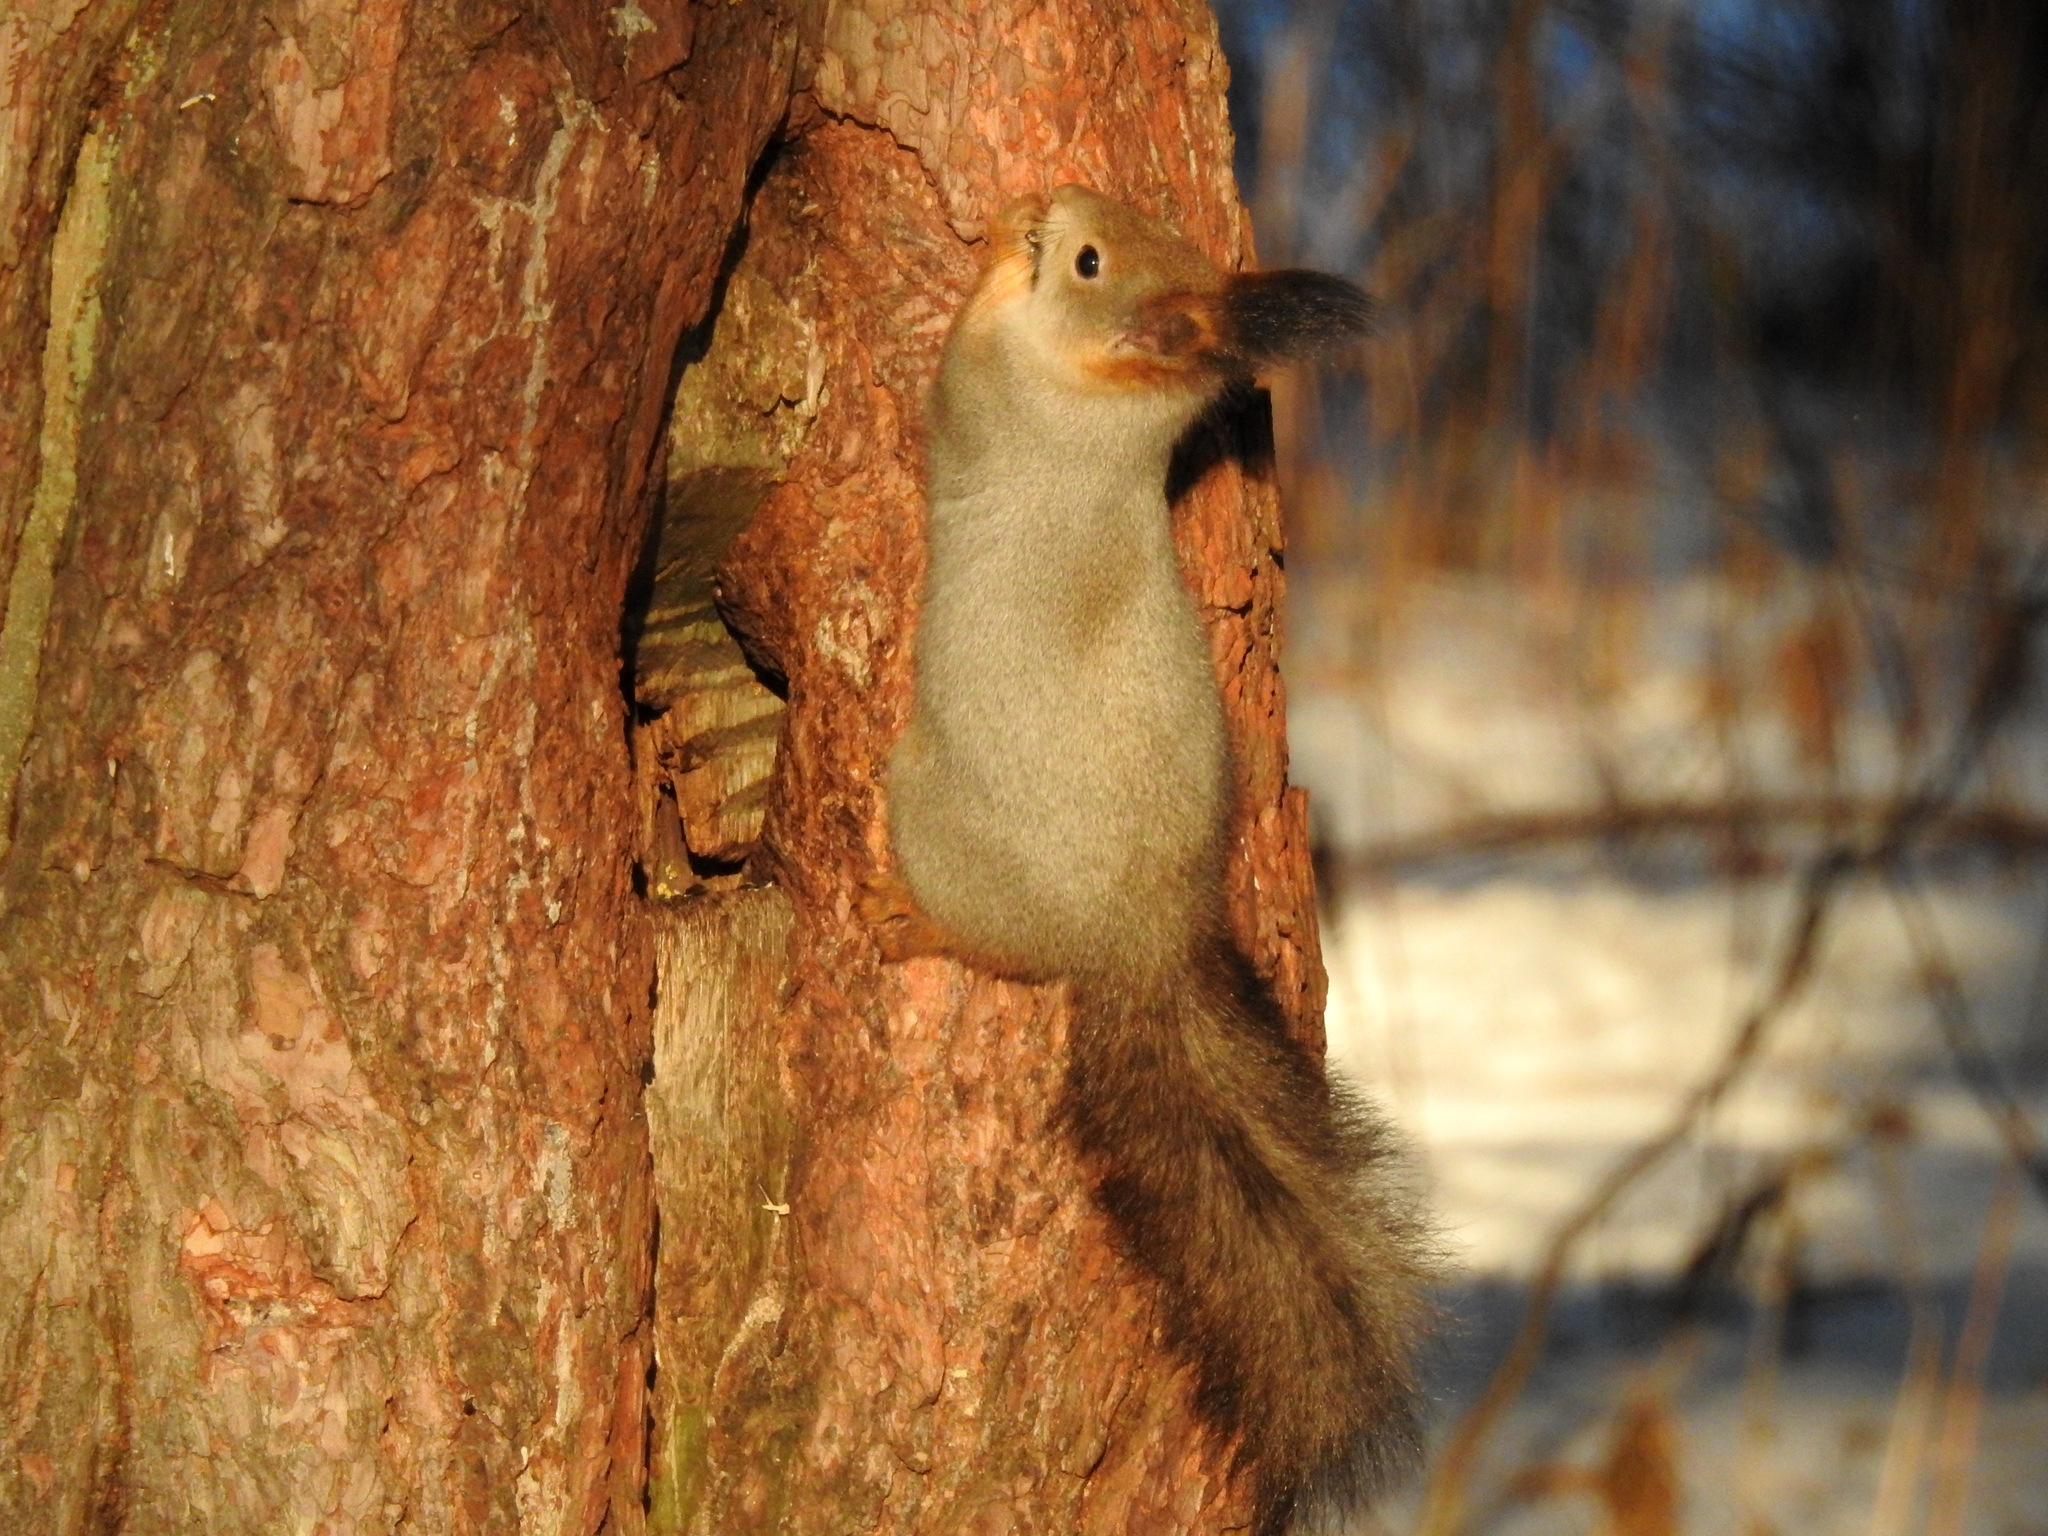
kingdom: Animalia
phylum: Chordata
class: Mammalia
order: Rodentia
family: Sciuridae
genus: Sciurus
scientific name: Sciurus vulgaris
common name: Eurasian red squirrel
